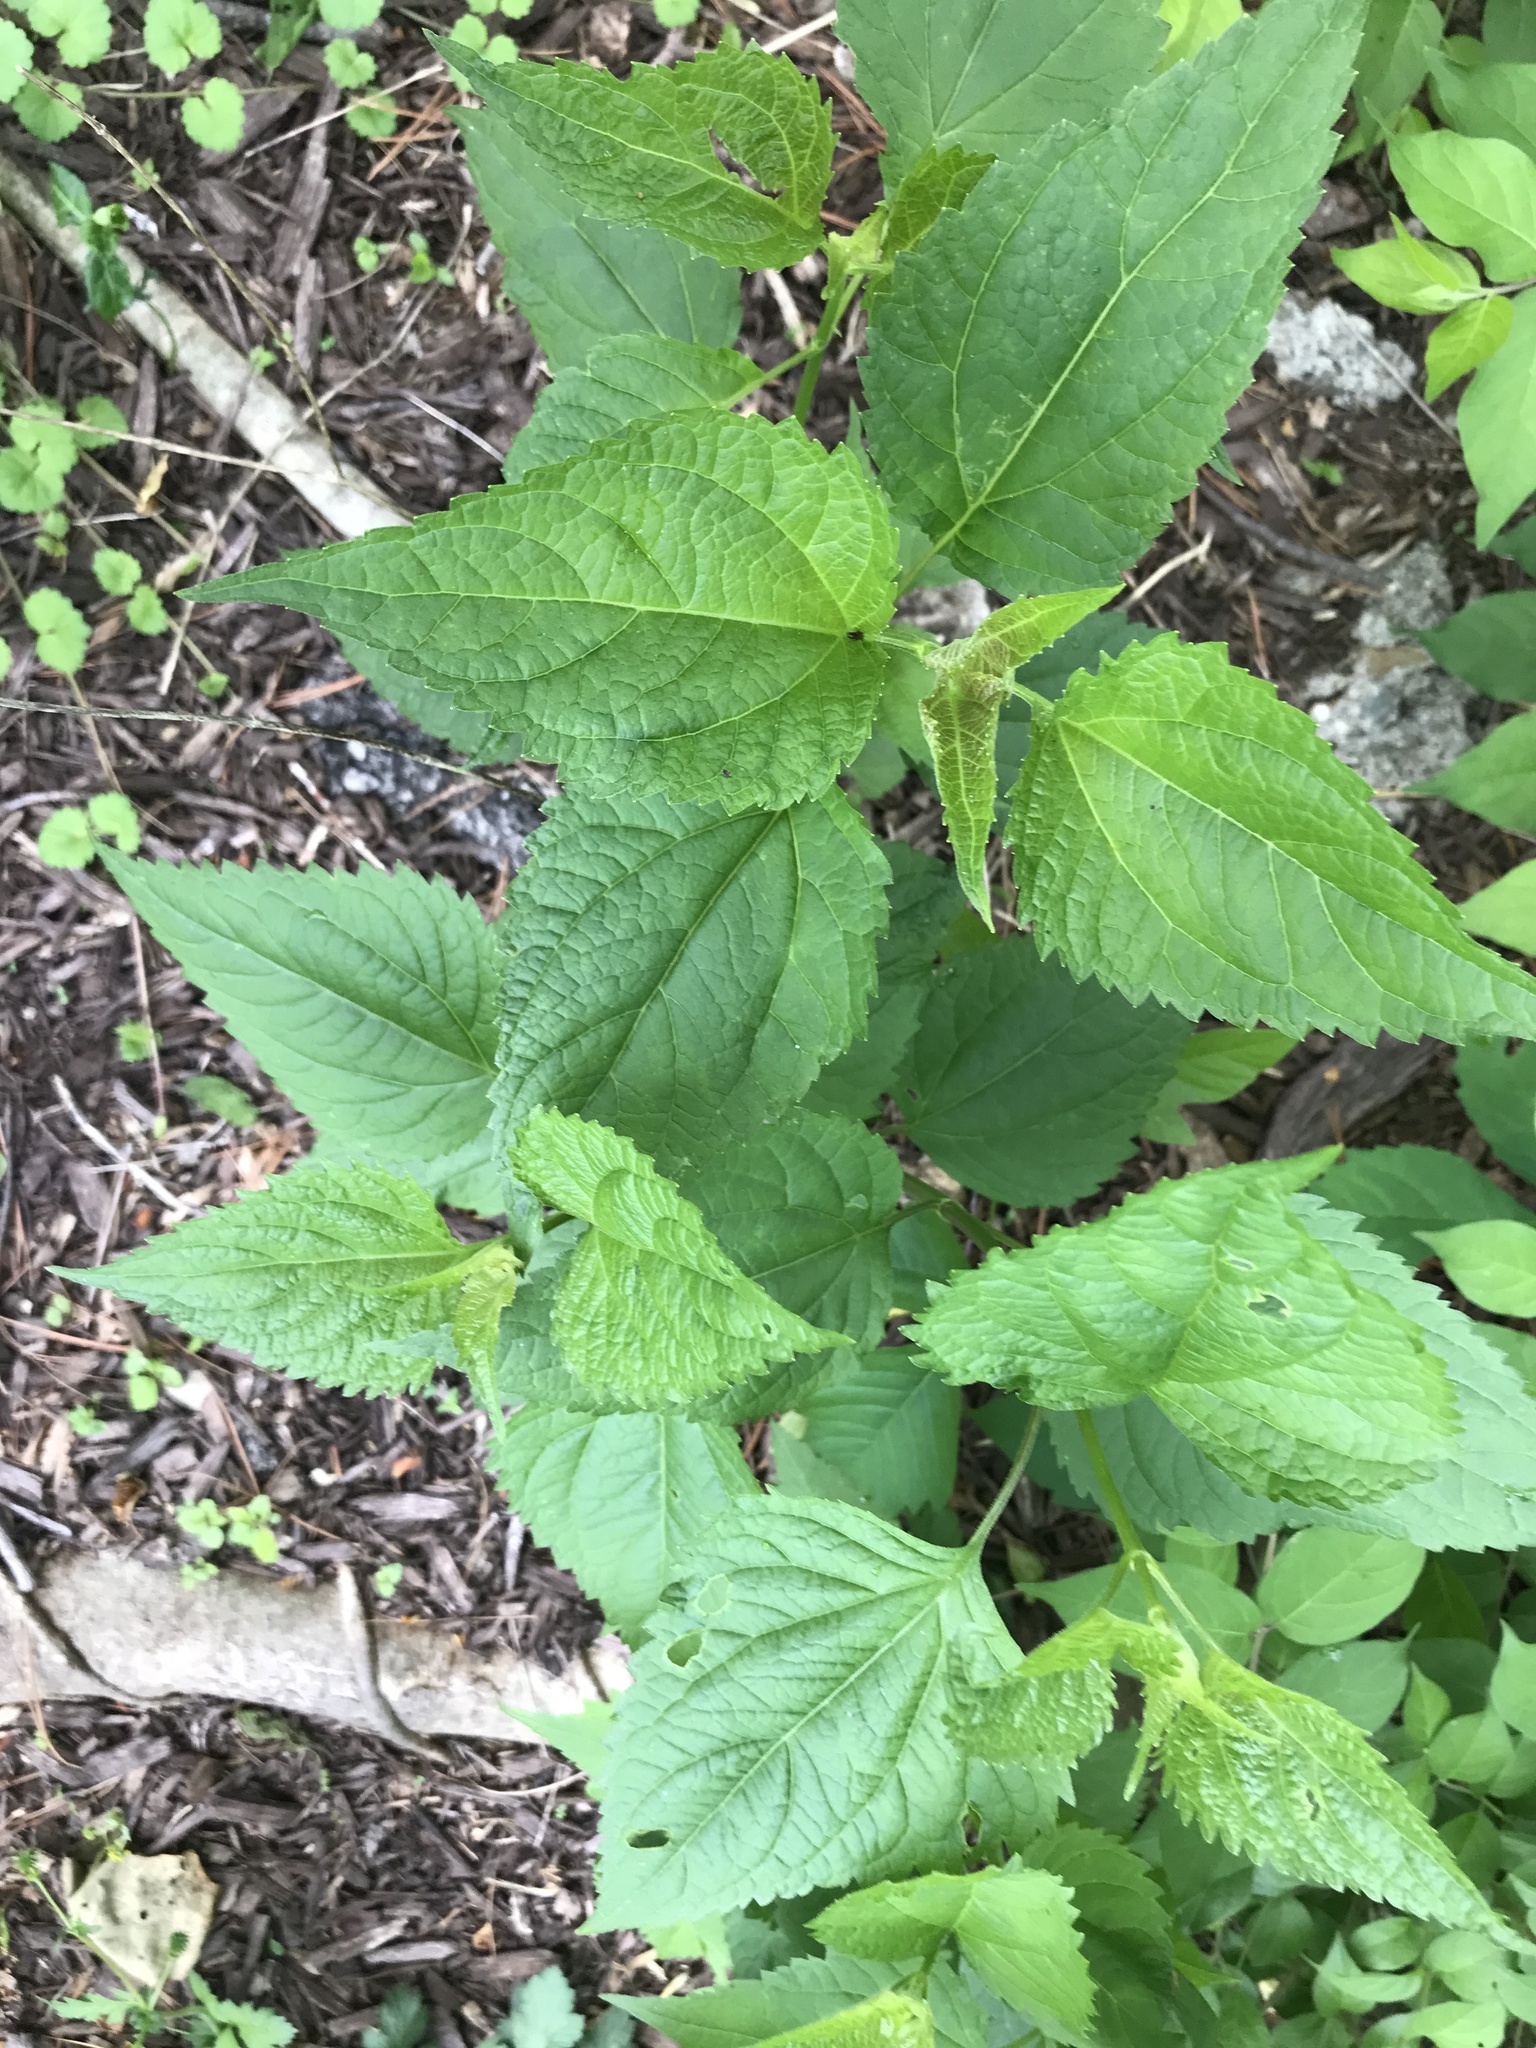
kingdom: Plantae
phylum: Tracheophyta
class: Magnoliopsida
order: Asterales
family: Asteraceae
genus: Ageratina
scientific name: Ageratina altissima
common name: White snakeroot
